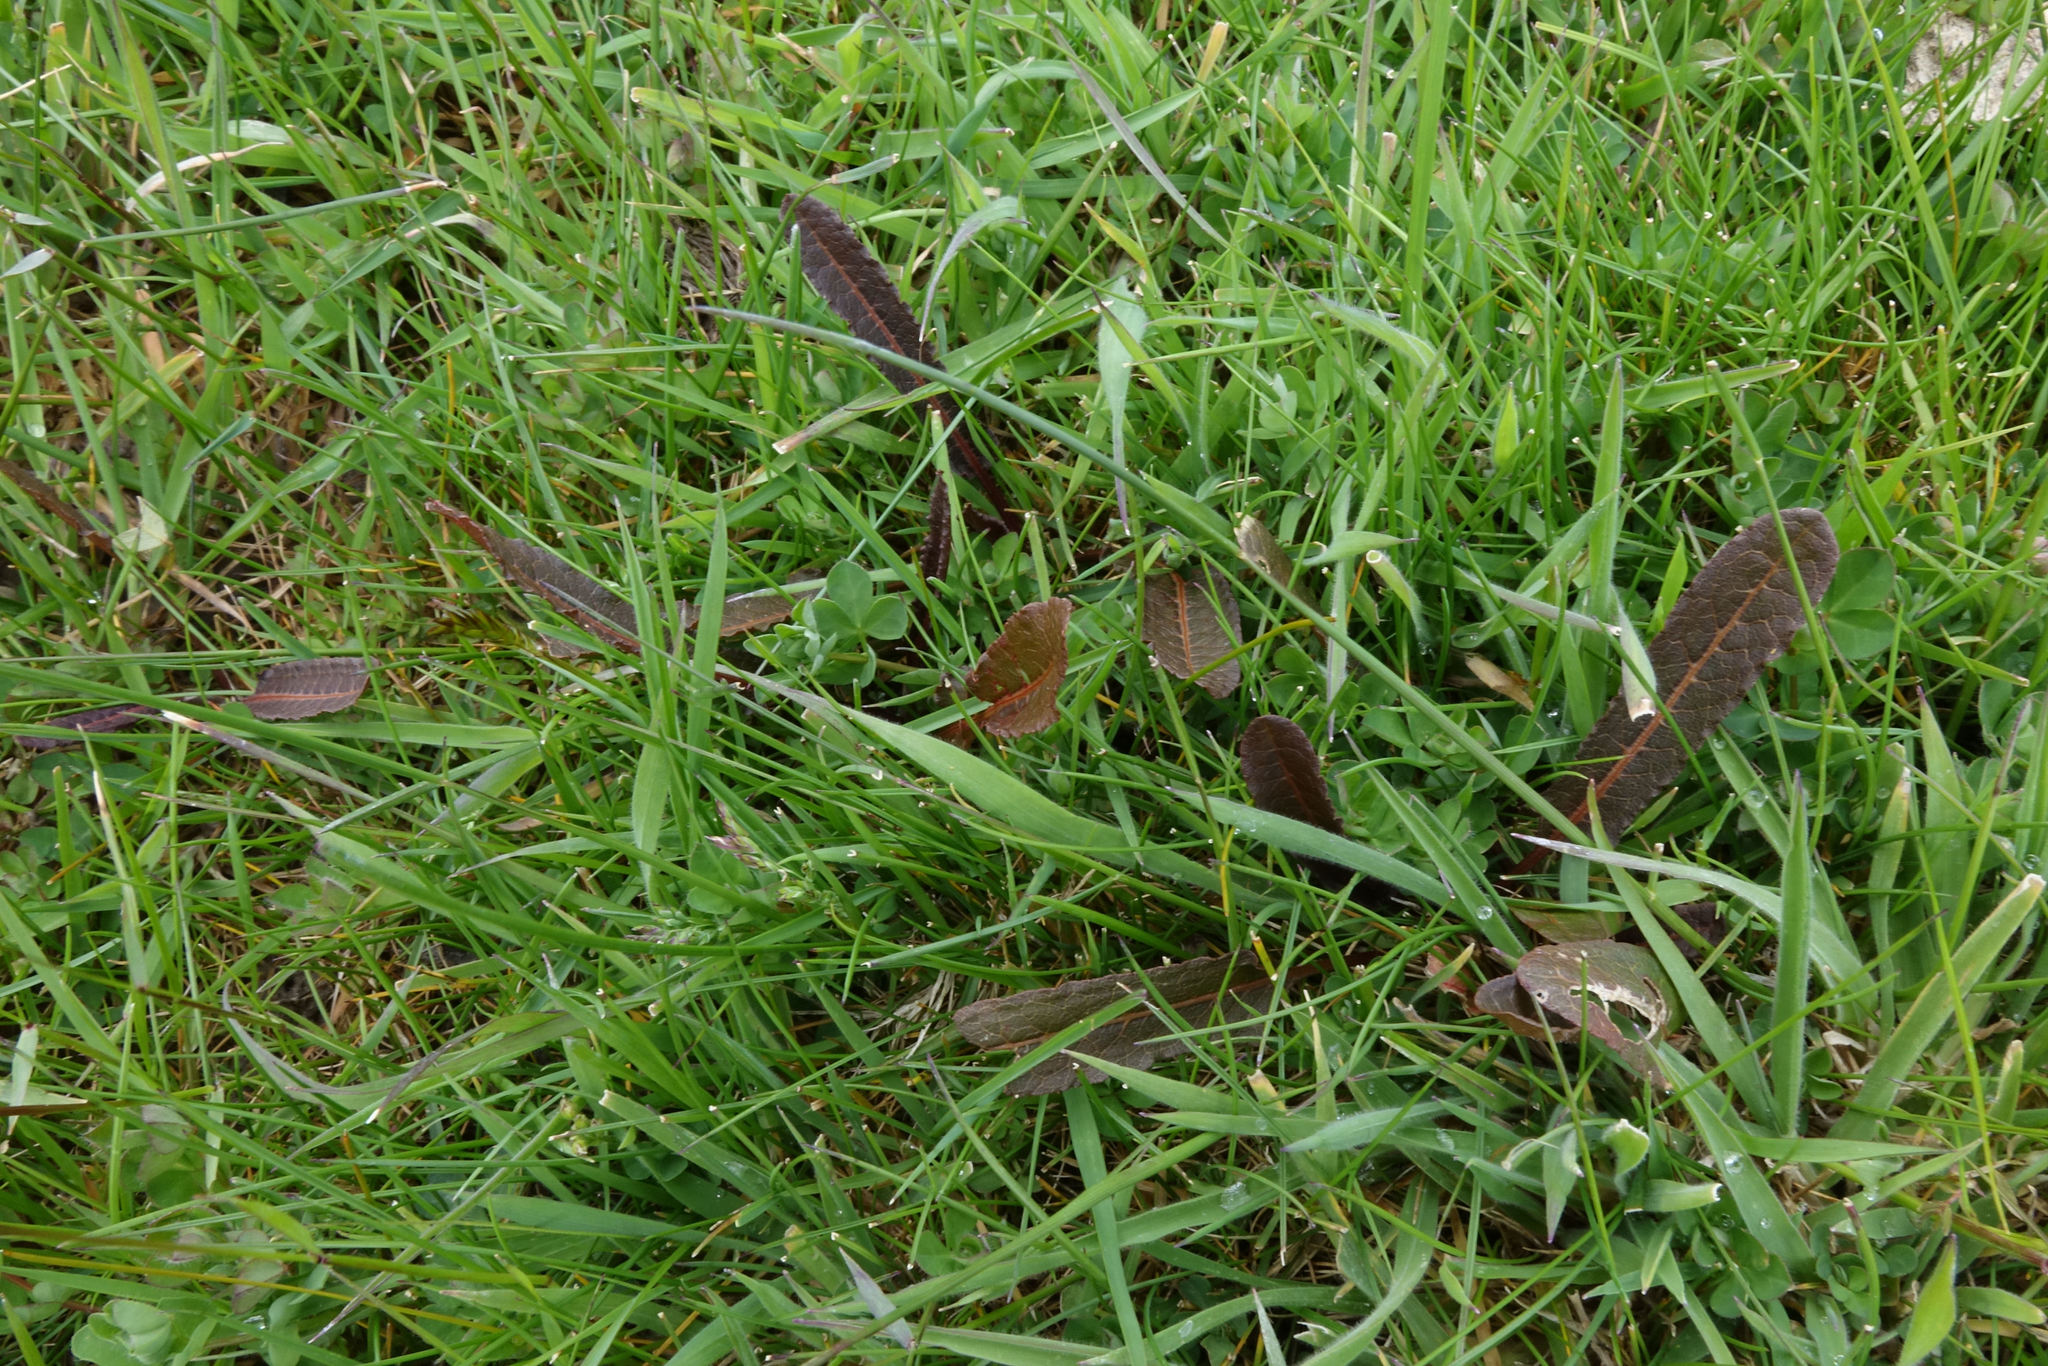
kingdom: Plantae
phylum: Tracheophyta
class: Magnoliopsida
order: Caryophyllales
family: Polygonaceae
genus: Rumex
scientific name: Rumex flexuosus
